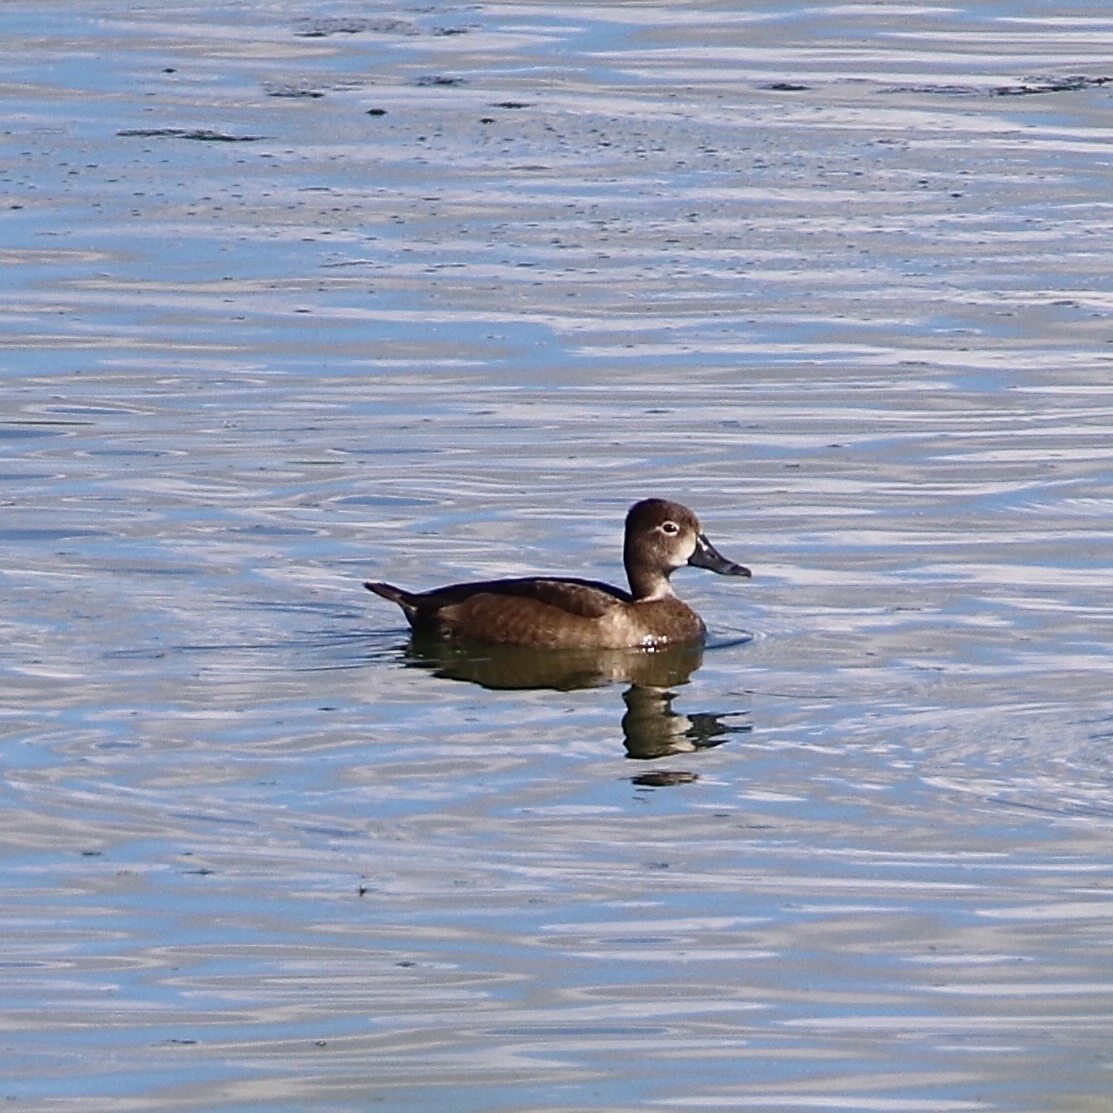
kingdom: Animalia
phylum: Chordata
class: Aves
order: Anseriformes
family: Anatidae
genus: Aythya
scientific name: Aythya collaris
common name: Ring-necked duck
